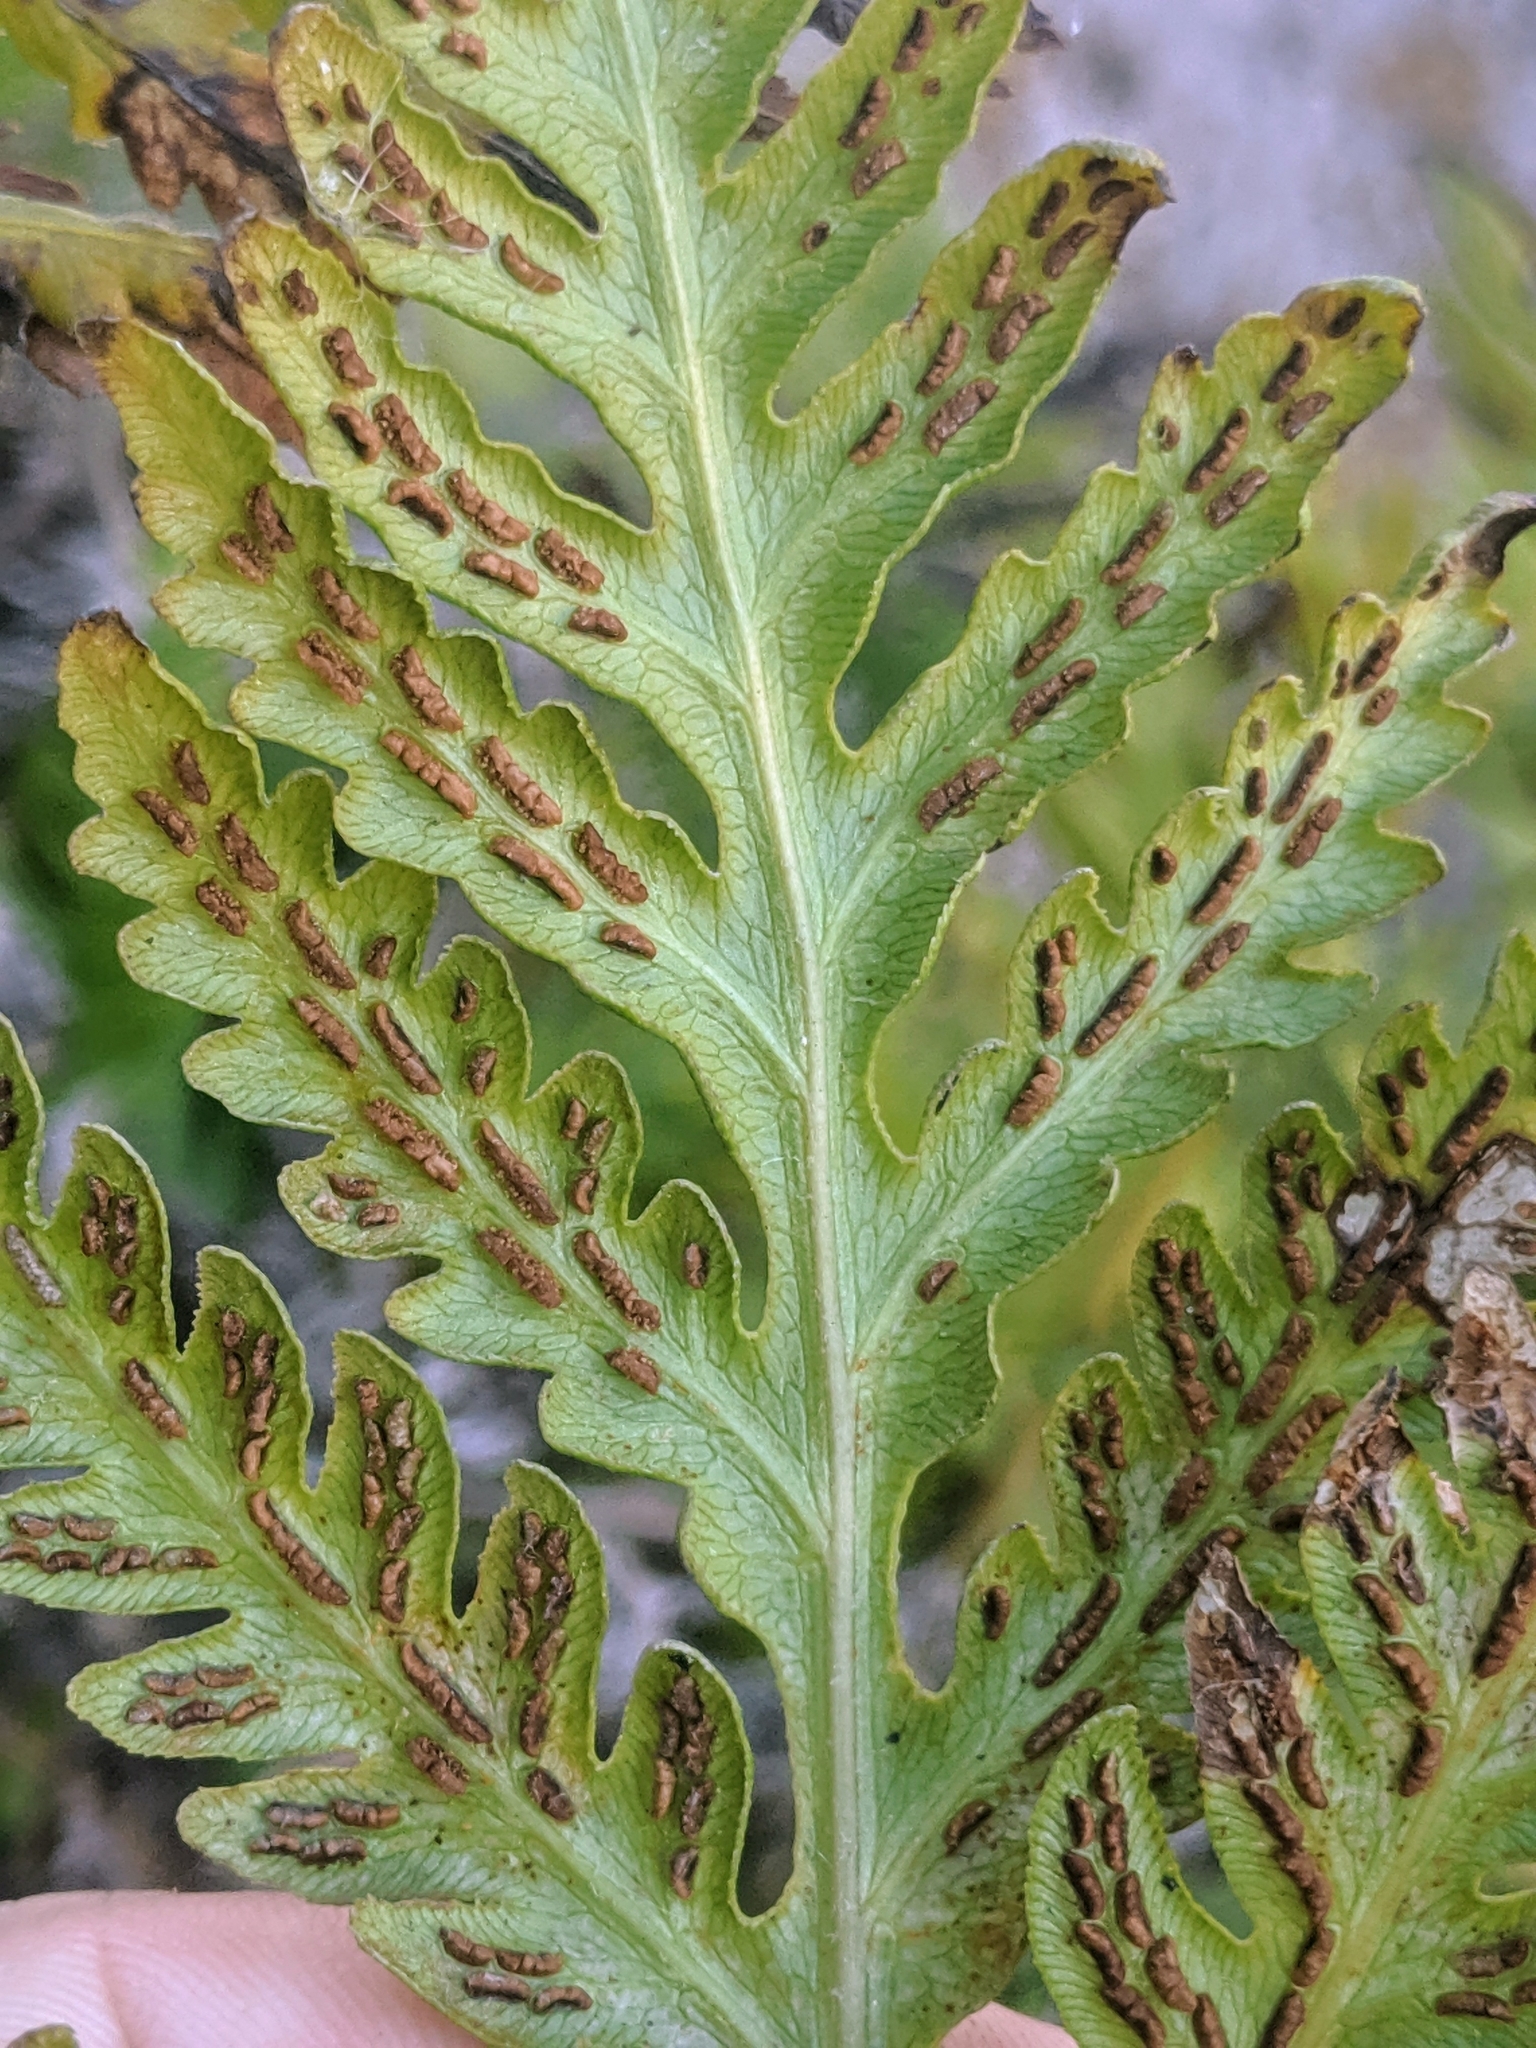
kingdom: Plantae
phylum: Tracheophyta
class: Polypodiopsida
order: Polypodiales
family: Blechnaceae
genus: Woodwardia
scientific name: Woodwardia fimbriata
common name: Giant chain fern
